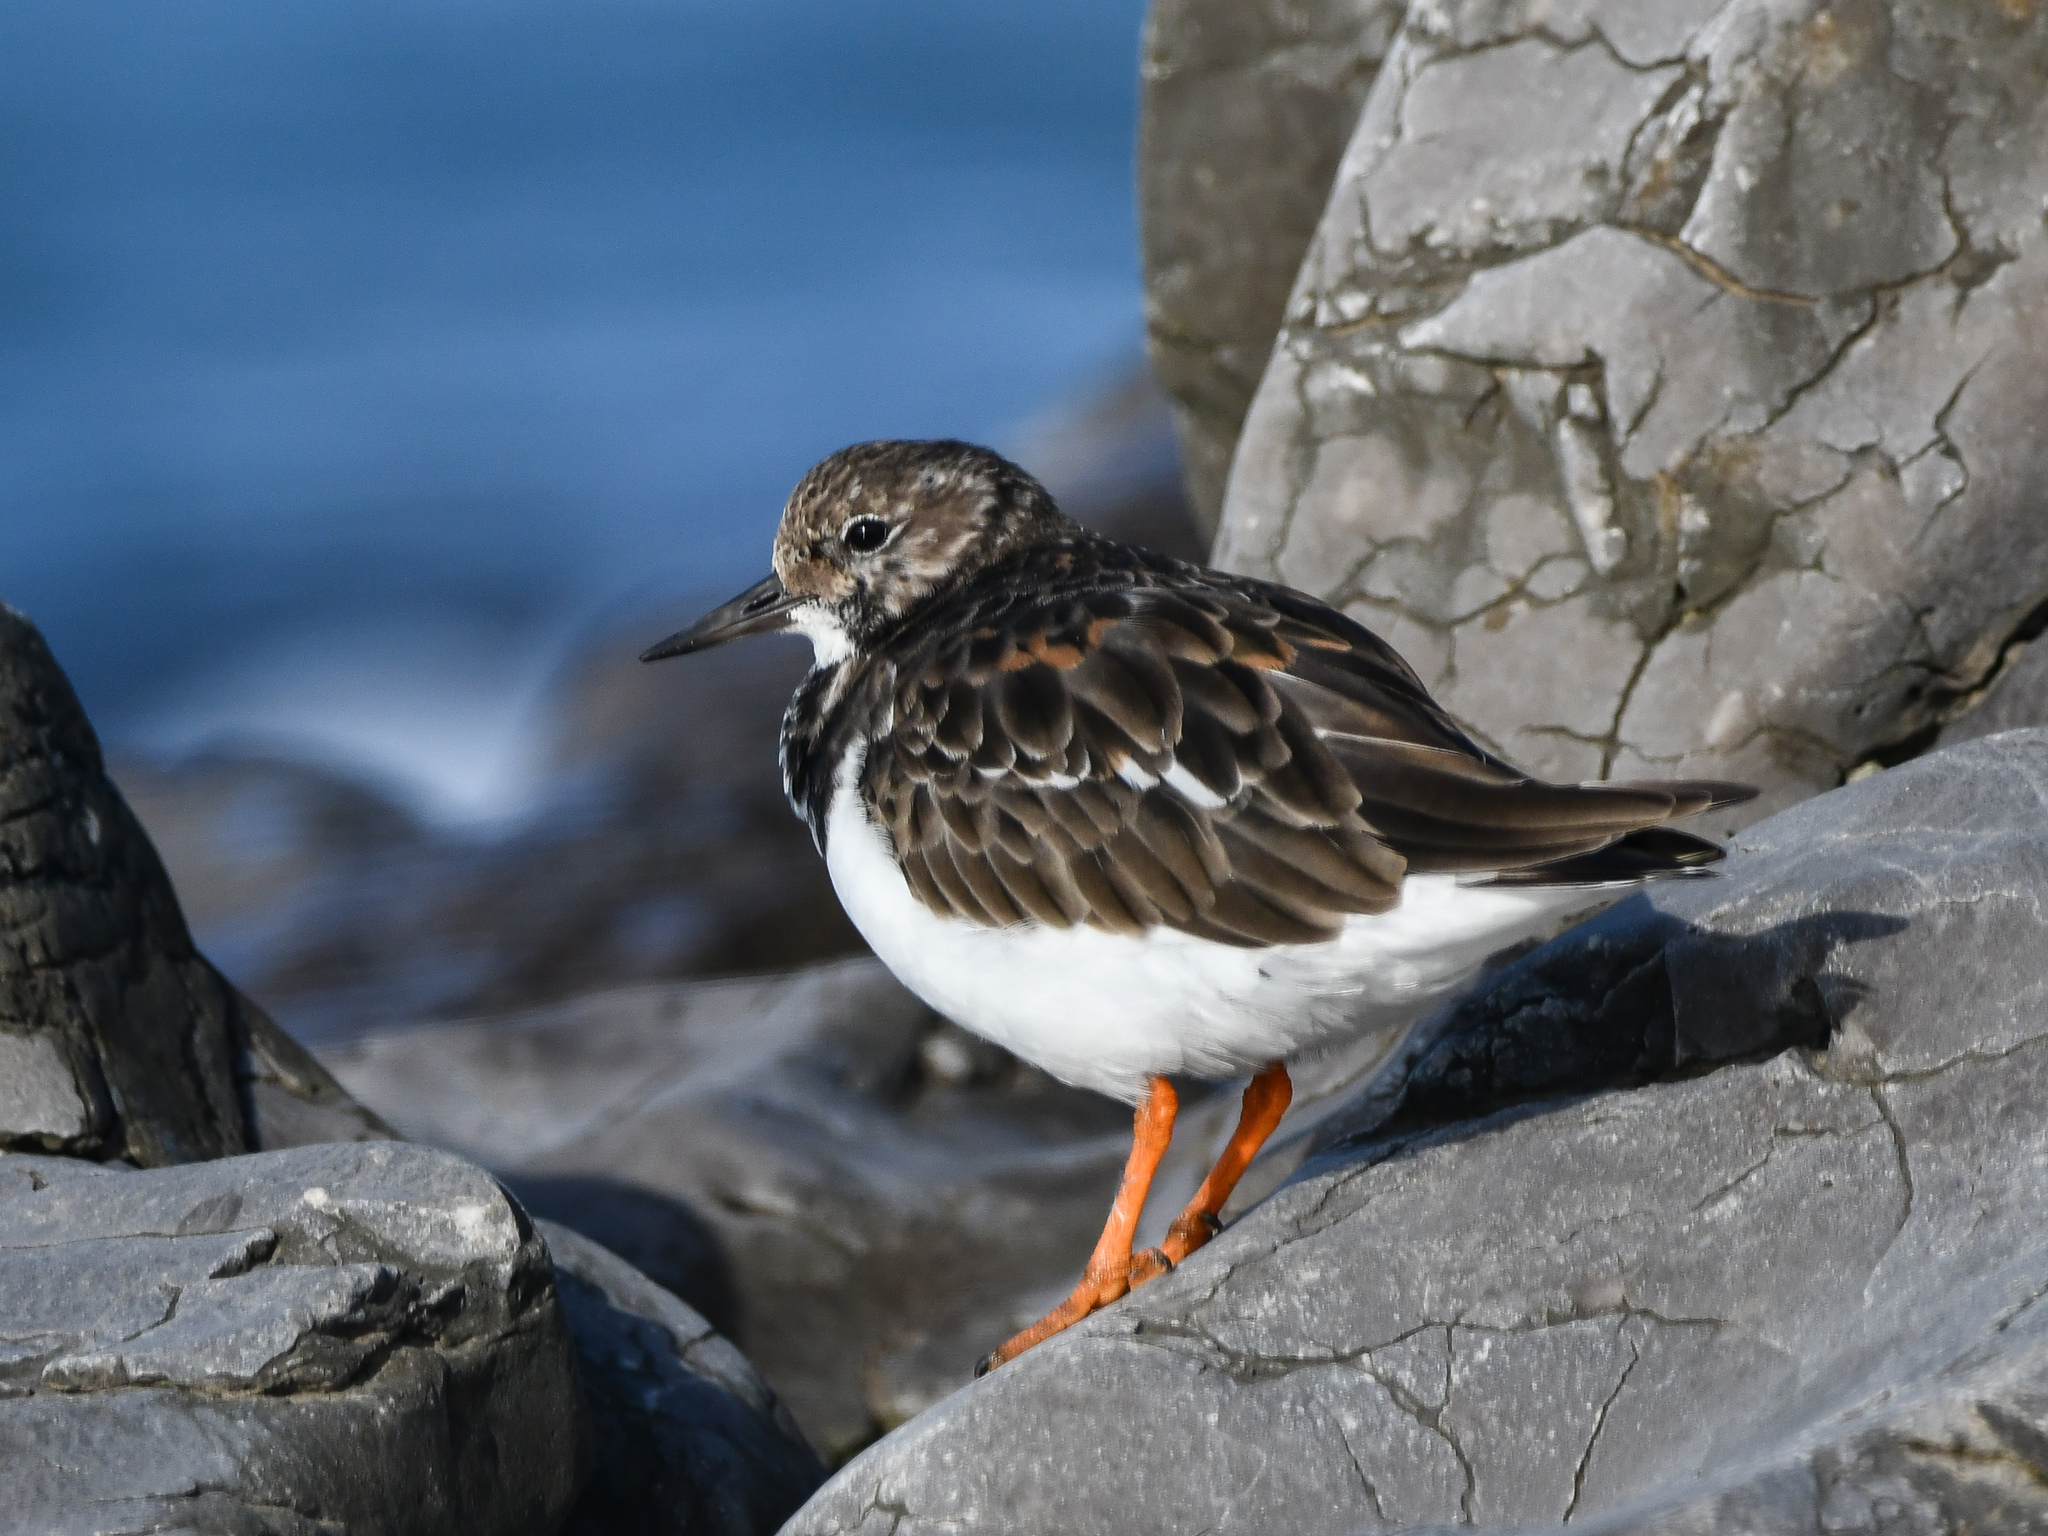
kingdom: Animalia
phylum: Chordata
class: Aves
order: Charadriiformes
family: Scolopacidae
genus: Arenaria
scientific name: Arenaria interpres
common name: Ruddy turnstone
